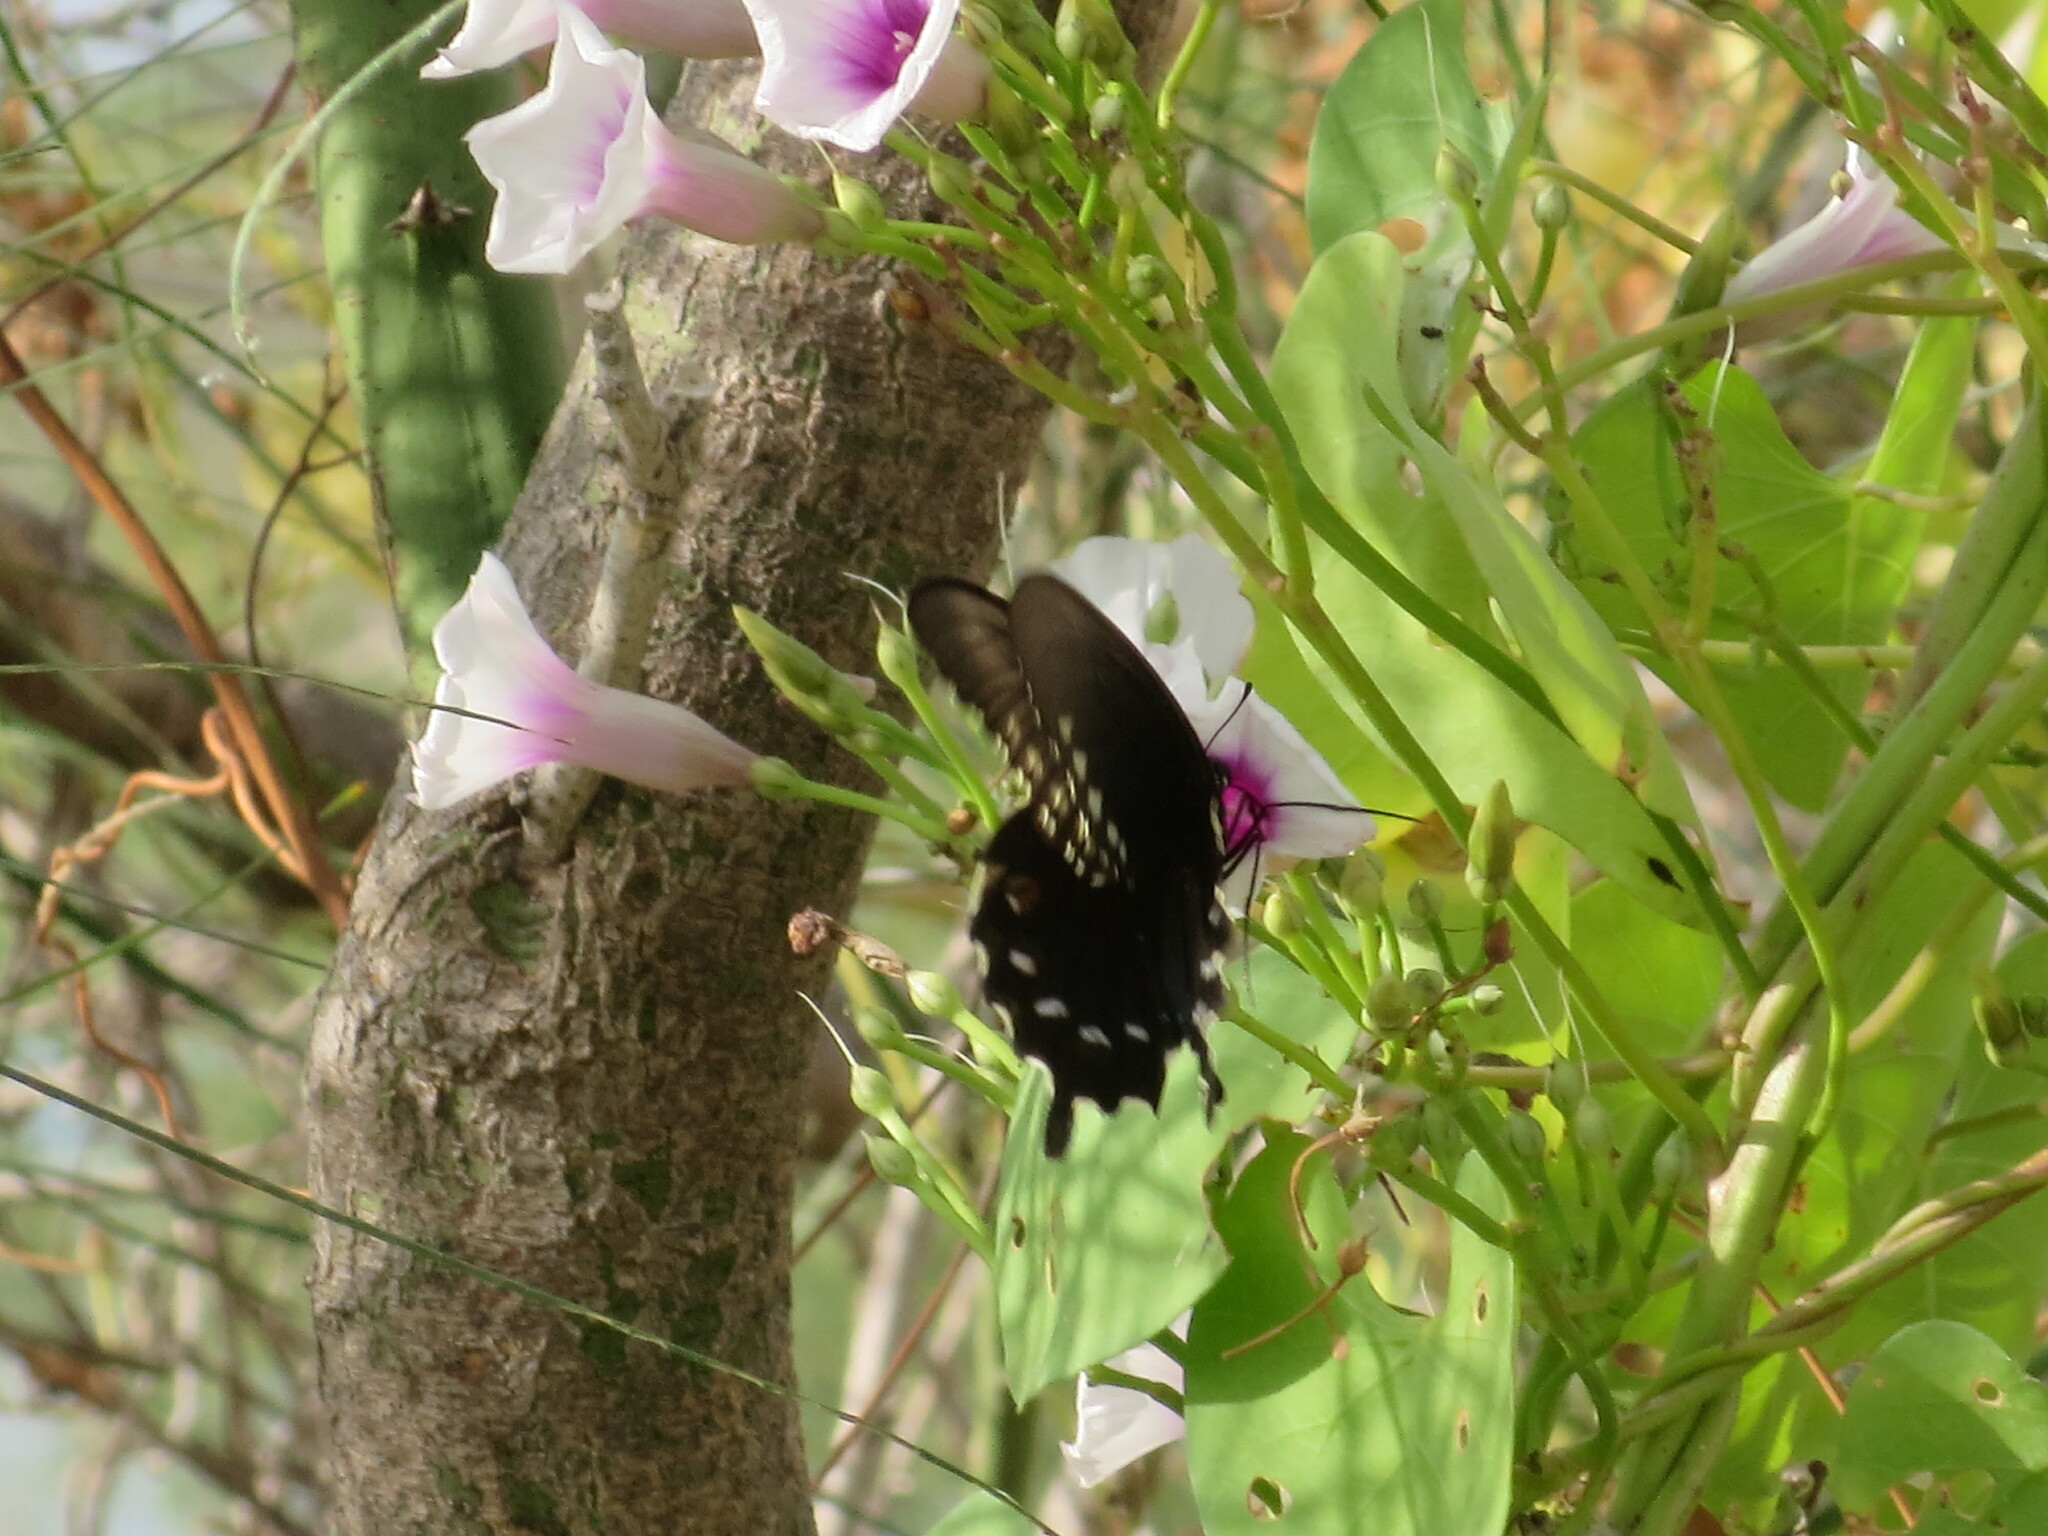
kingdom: Animalia
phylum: Arthropoda
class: Insecta
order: Lepidoptera
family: Papilionidae
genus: Battus
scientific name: Battus philenor
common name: Pipevine swallowtail
